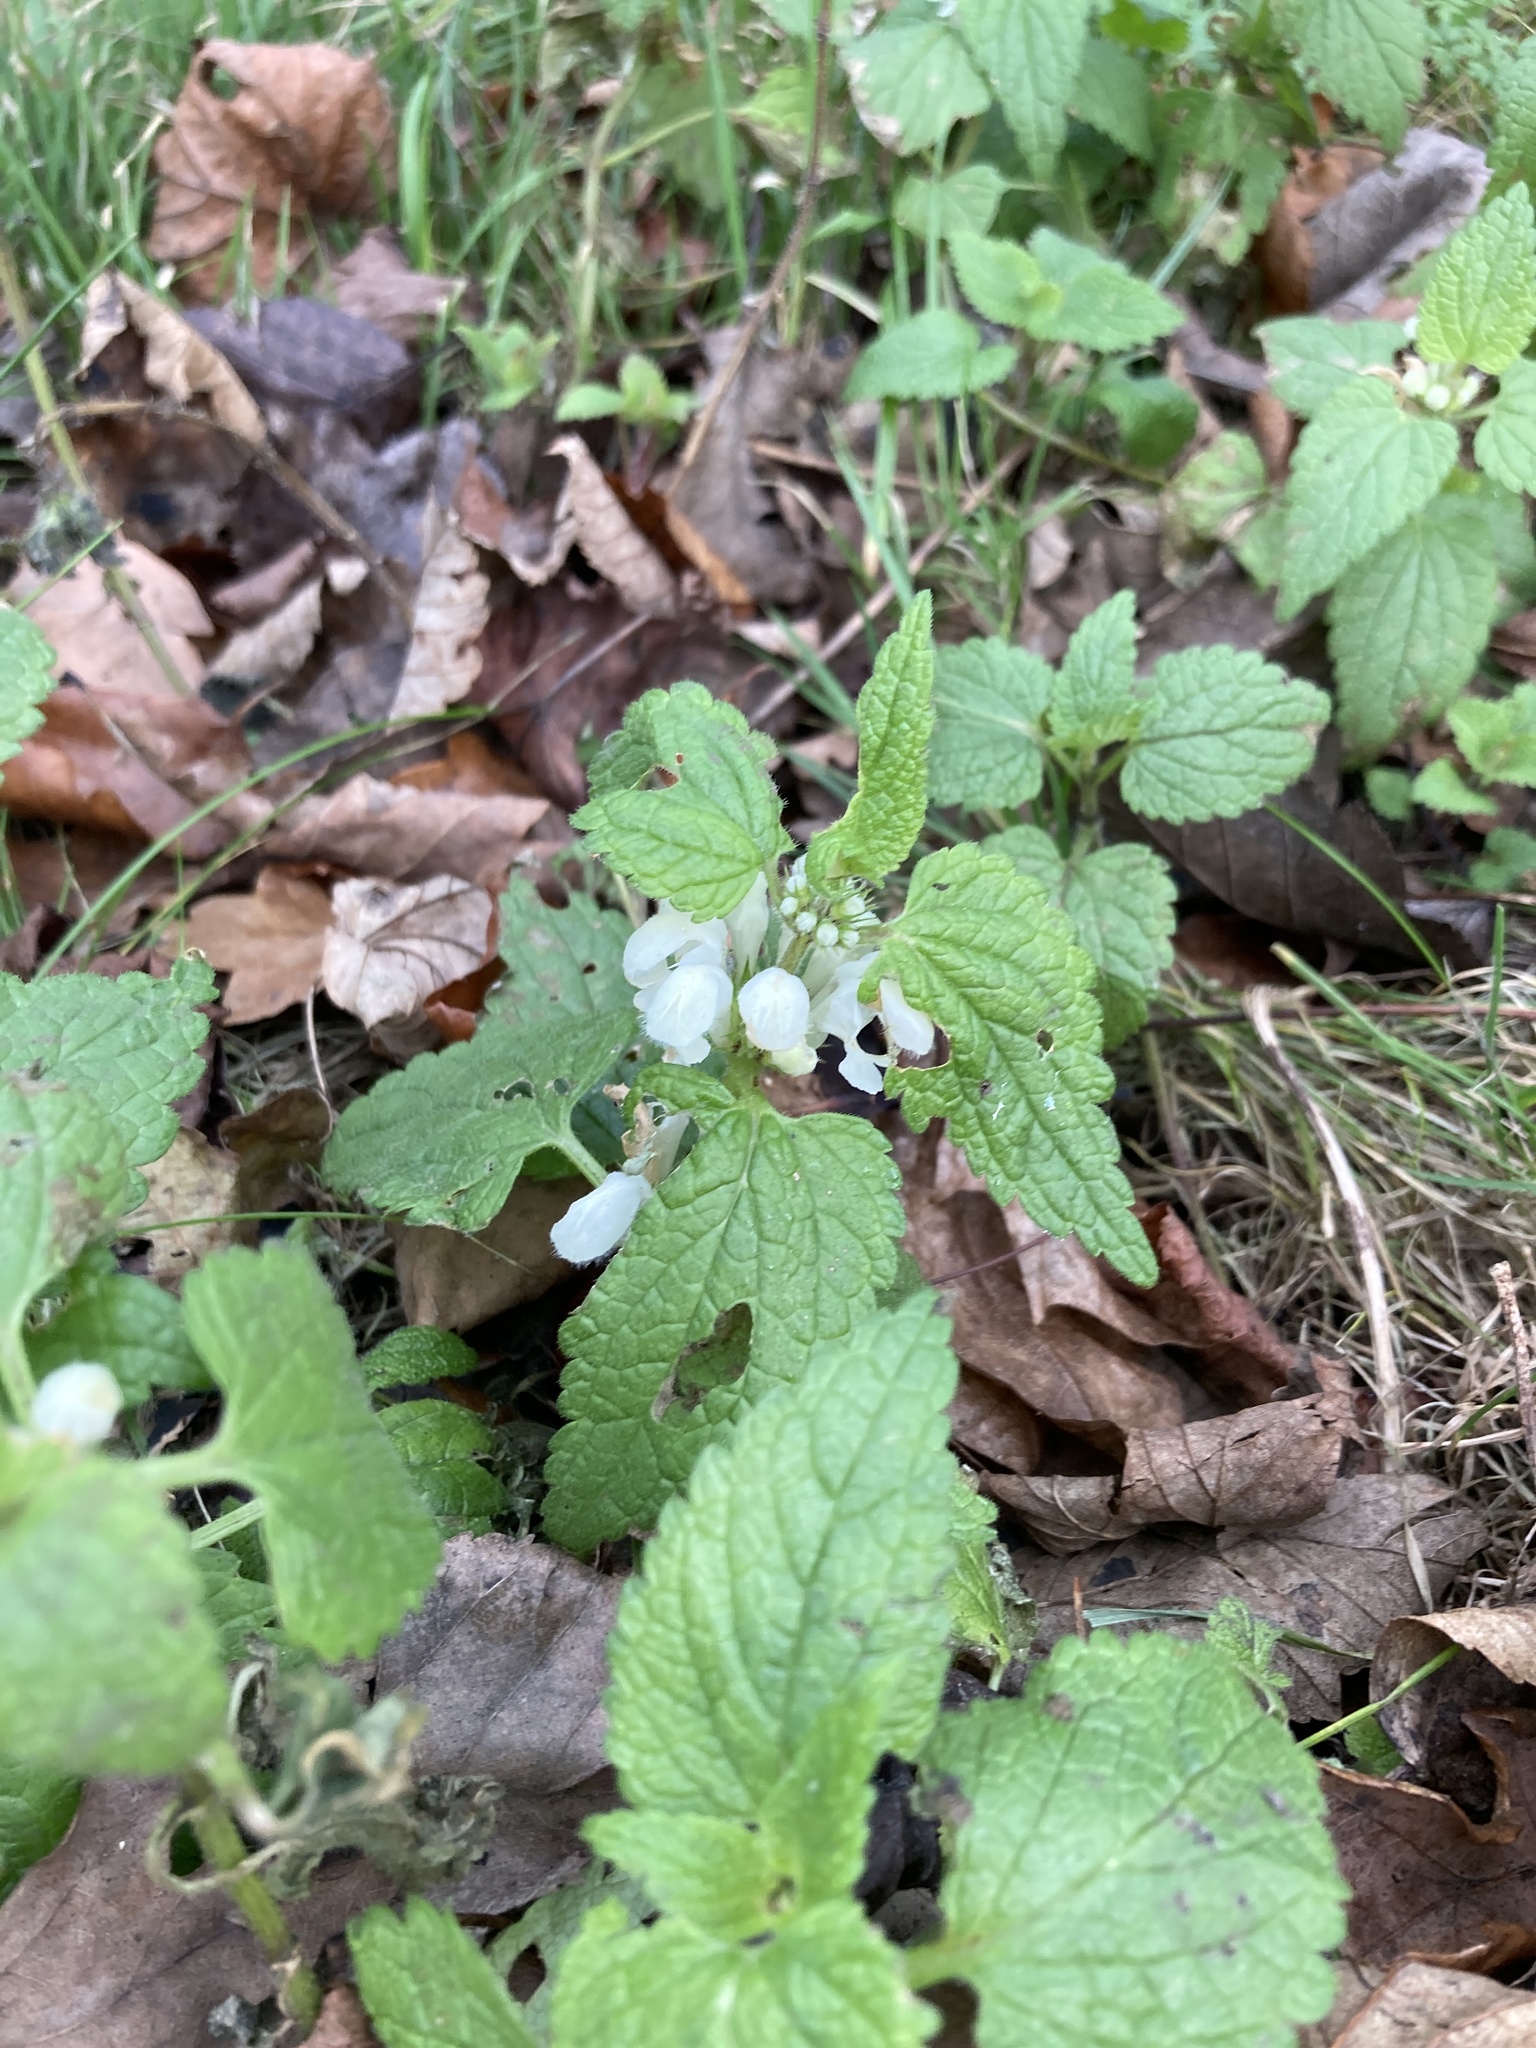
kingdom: Plantae
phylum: Tracheophyta
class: Magnoliopsida
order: Lamiales
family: Lamiaceae
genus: Lamium
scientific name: Lamium album
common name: White dead-nettle
